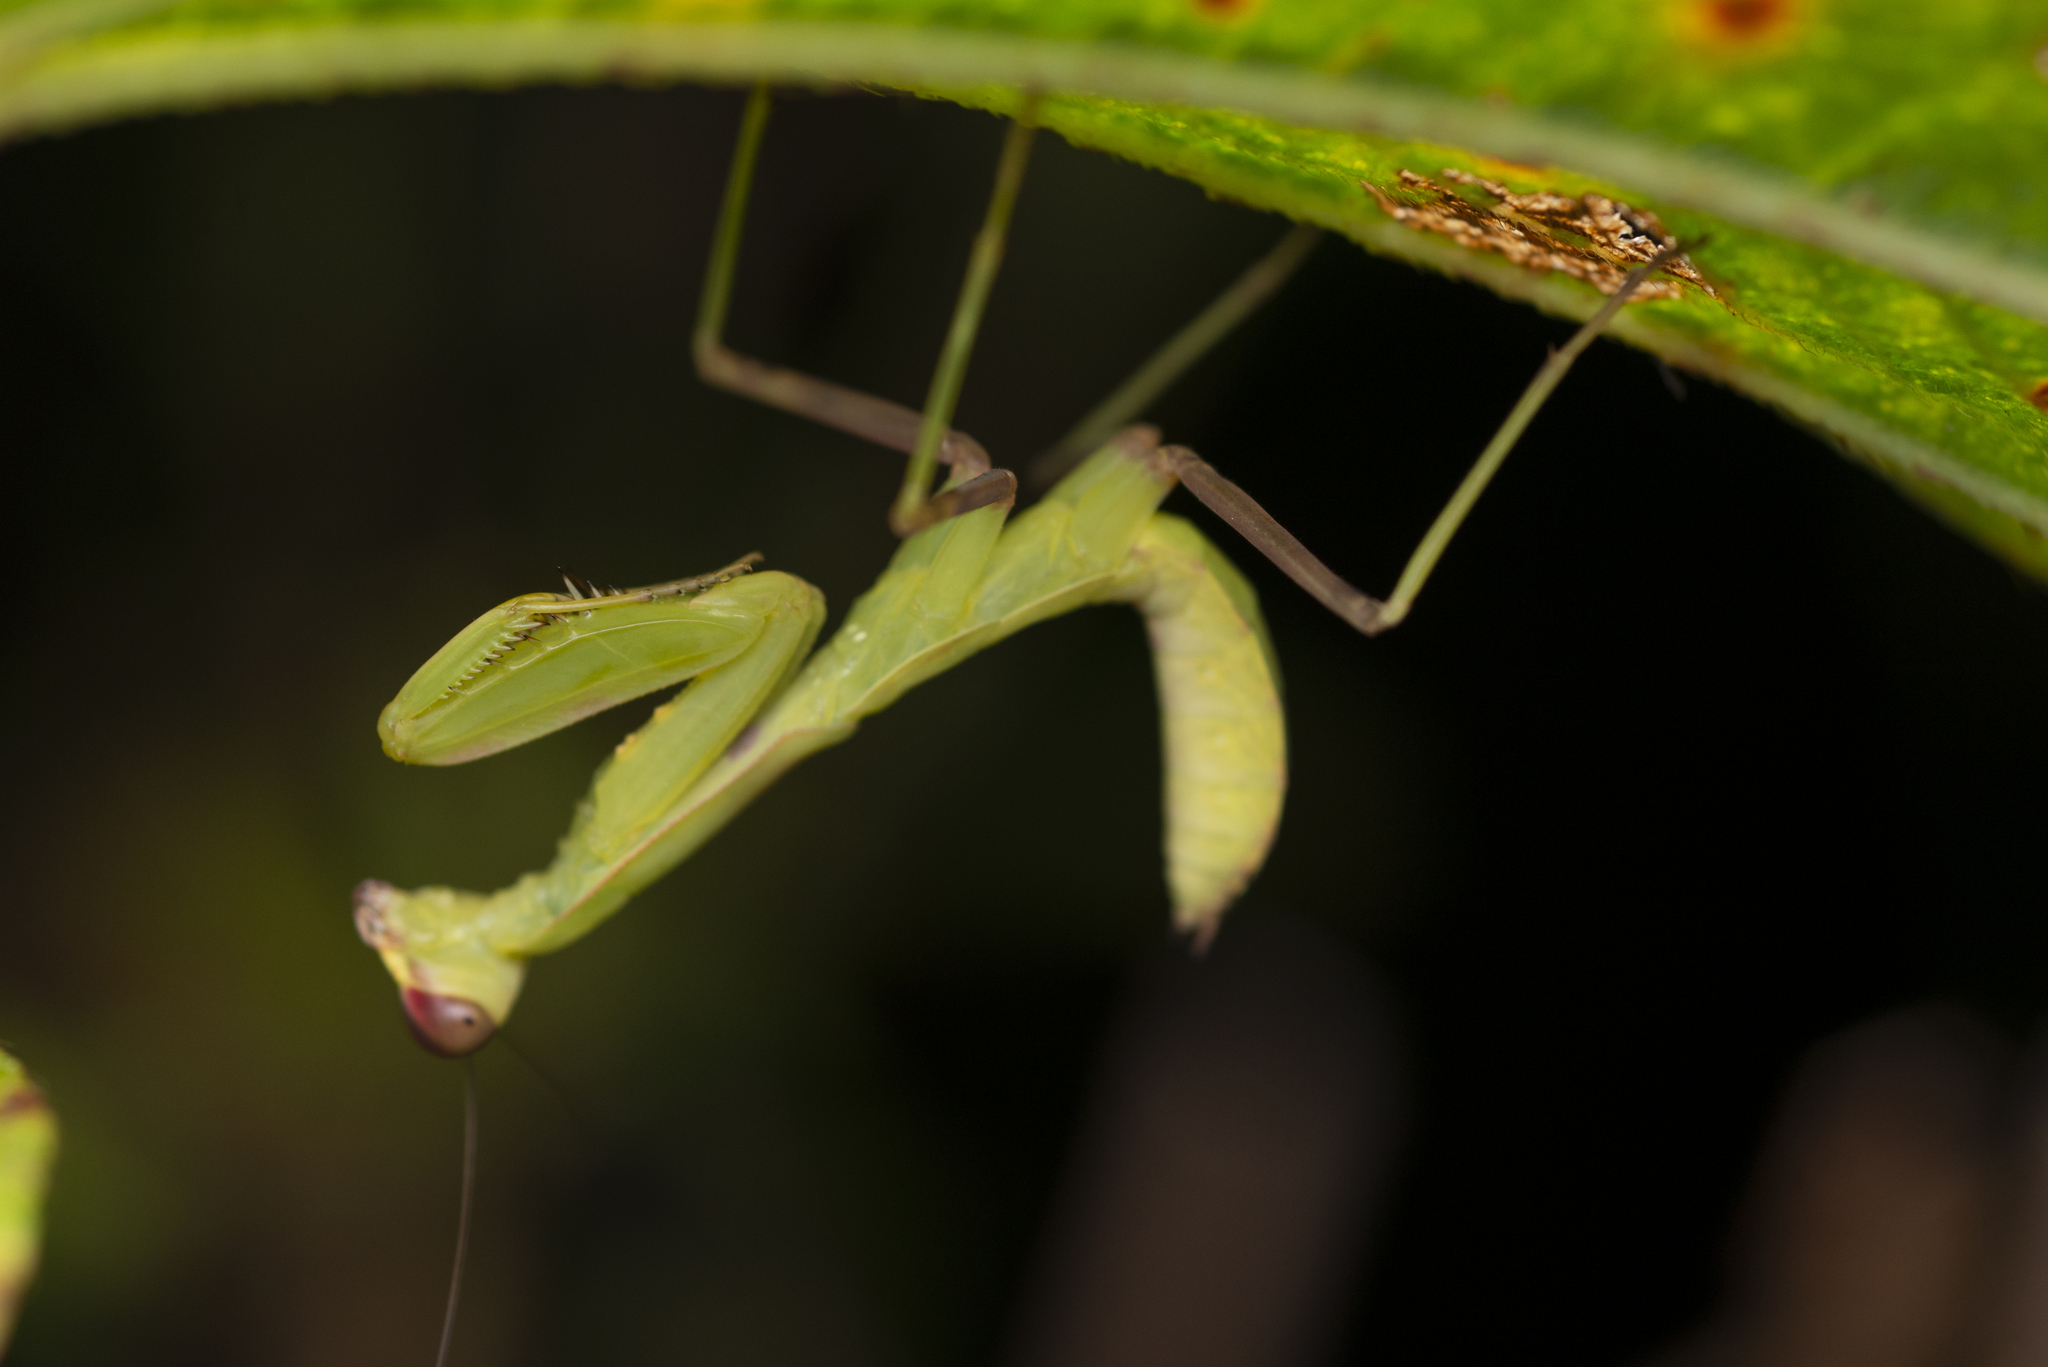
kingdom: Animalia
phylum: Arthropoda
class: Insecta
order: Mantodea
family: Mantidae
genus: Hierodula
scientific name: Hierodula patellifera
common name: Asian mantis
